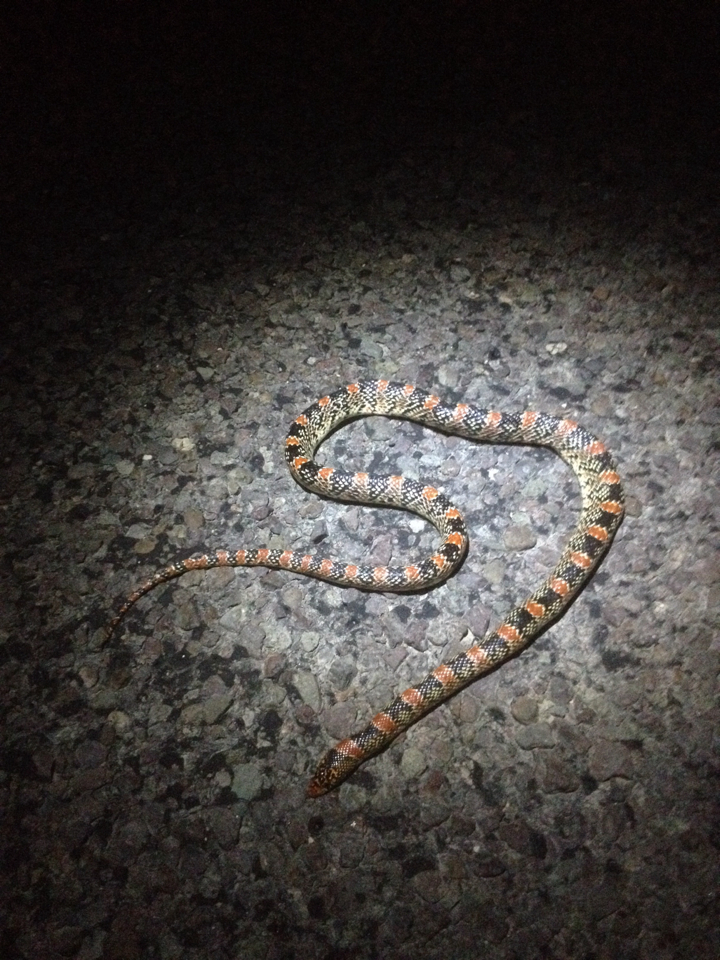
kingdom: Animalia
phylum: Chordata
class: Squamata
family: Colubridae
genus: Rhinocheilus
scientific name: Rhinocheilus lecontei
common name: Longnose snake
